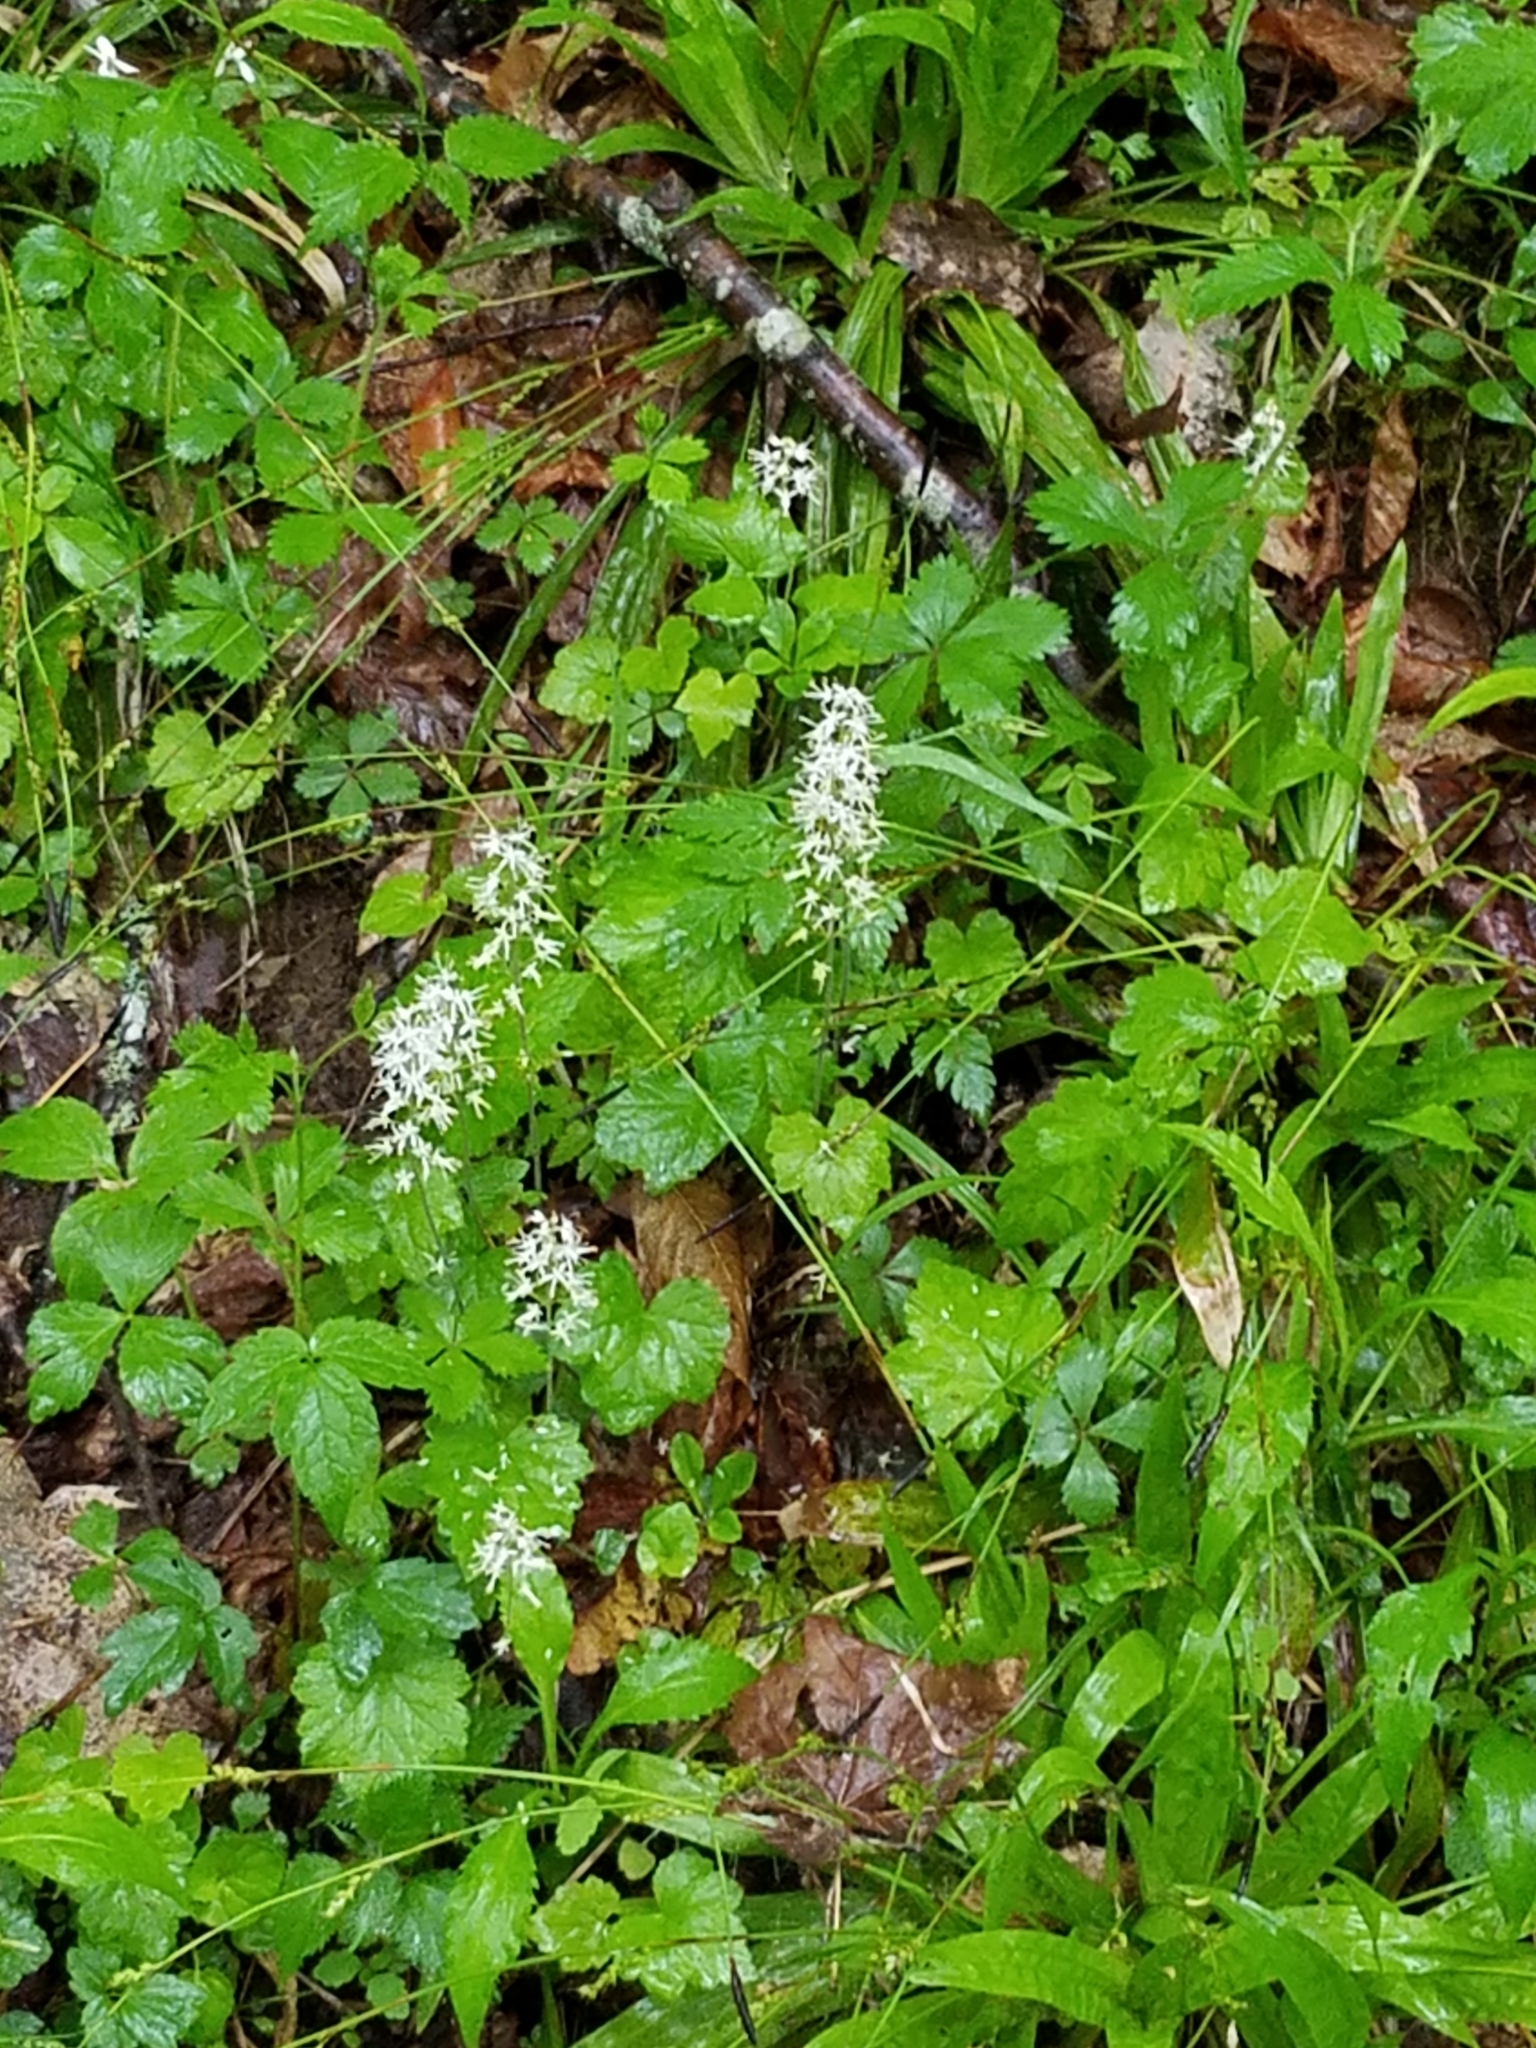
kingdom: Plantae
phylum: Tracheophyta
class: Magnoliopsida
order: Saxifragales
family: Saxifragaceae
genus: Tiarella
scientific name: Tiarella stolonifera
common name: Stoloniferous foamflower
